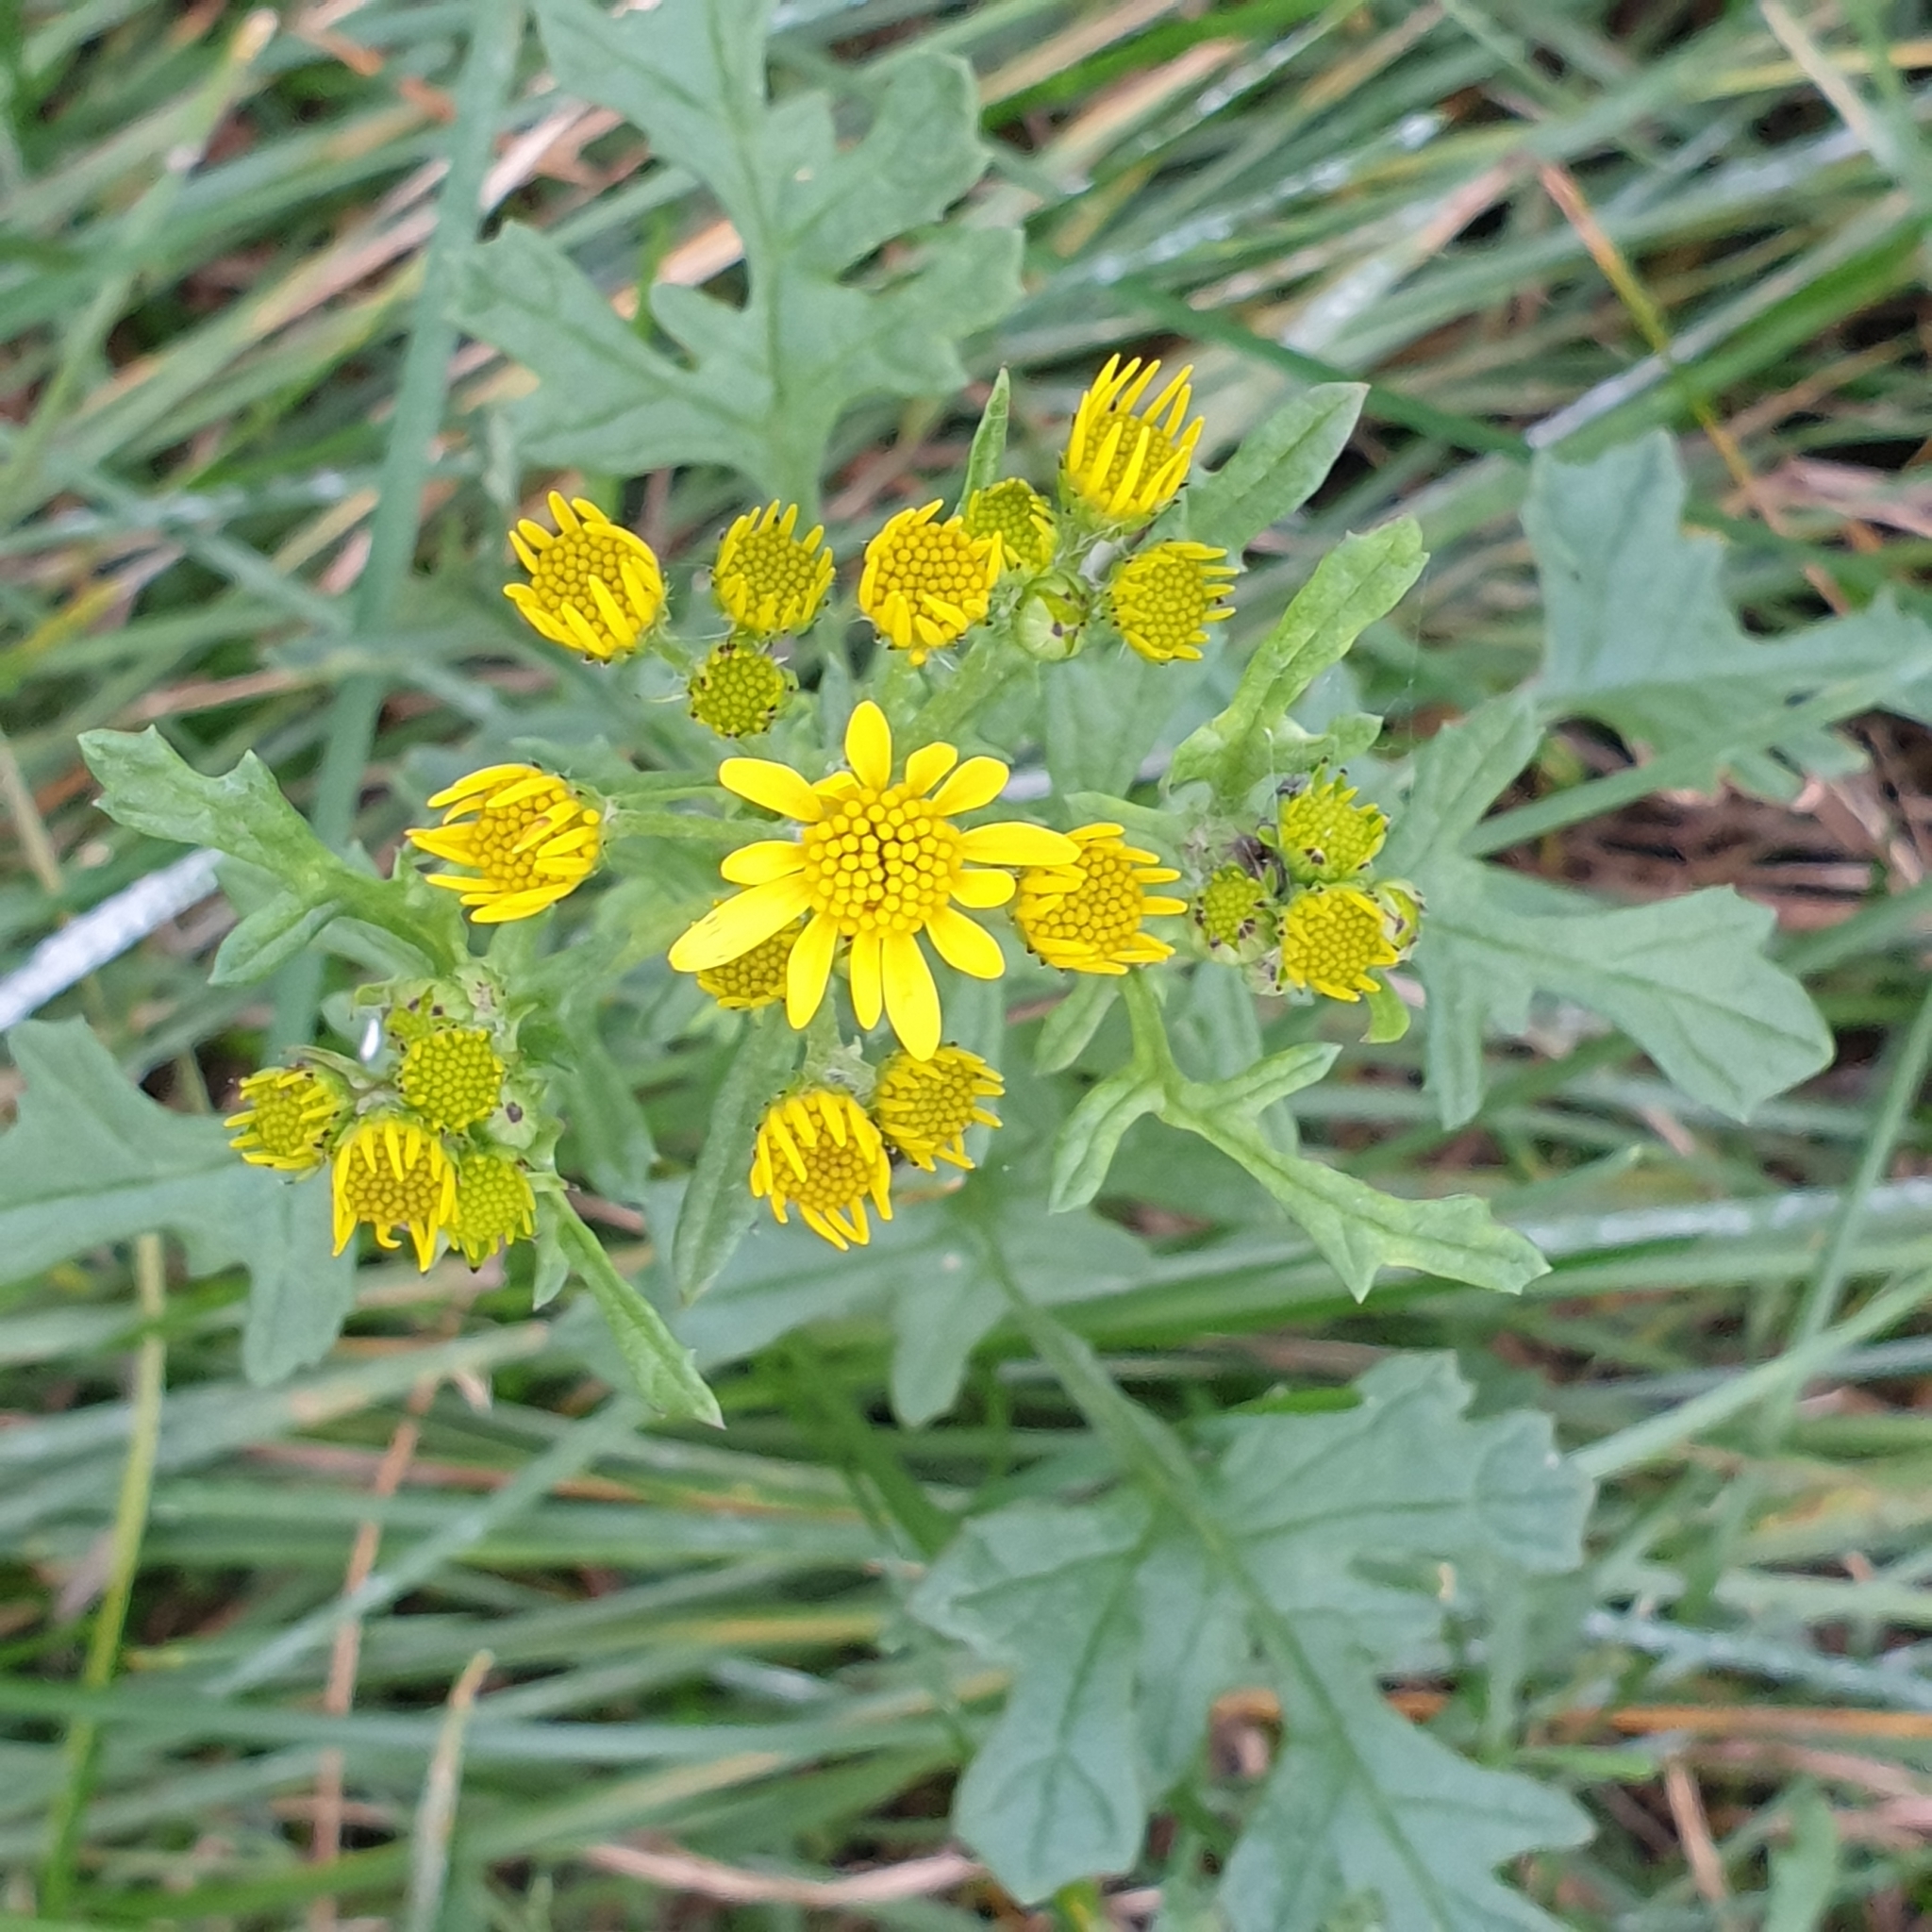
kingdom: Plantae
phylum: Tracheophyta
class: Magnoliopsida
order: Asterales
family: Asteraceae
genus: Jacobaea
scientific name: Jacobaea vulgaris
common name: Stinking willie
